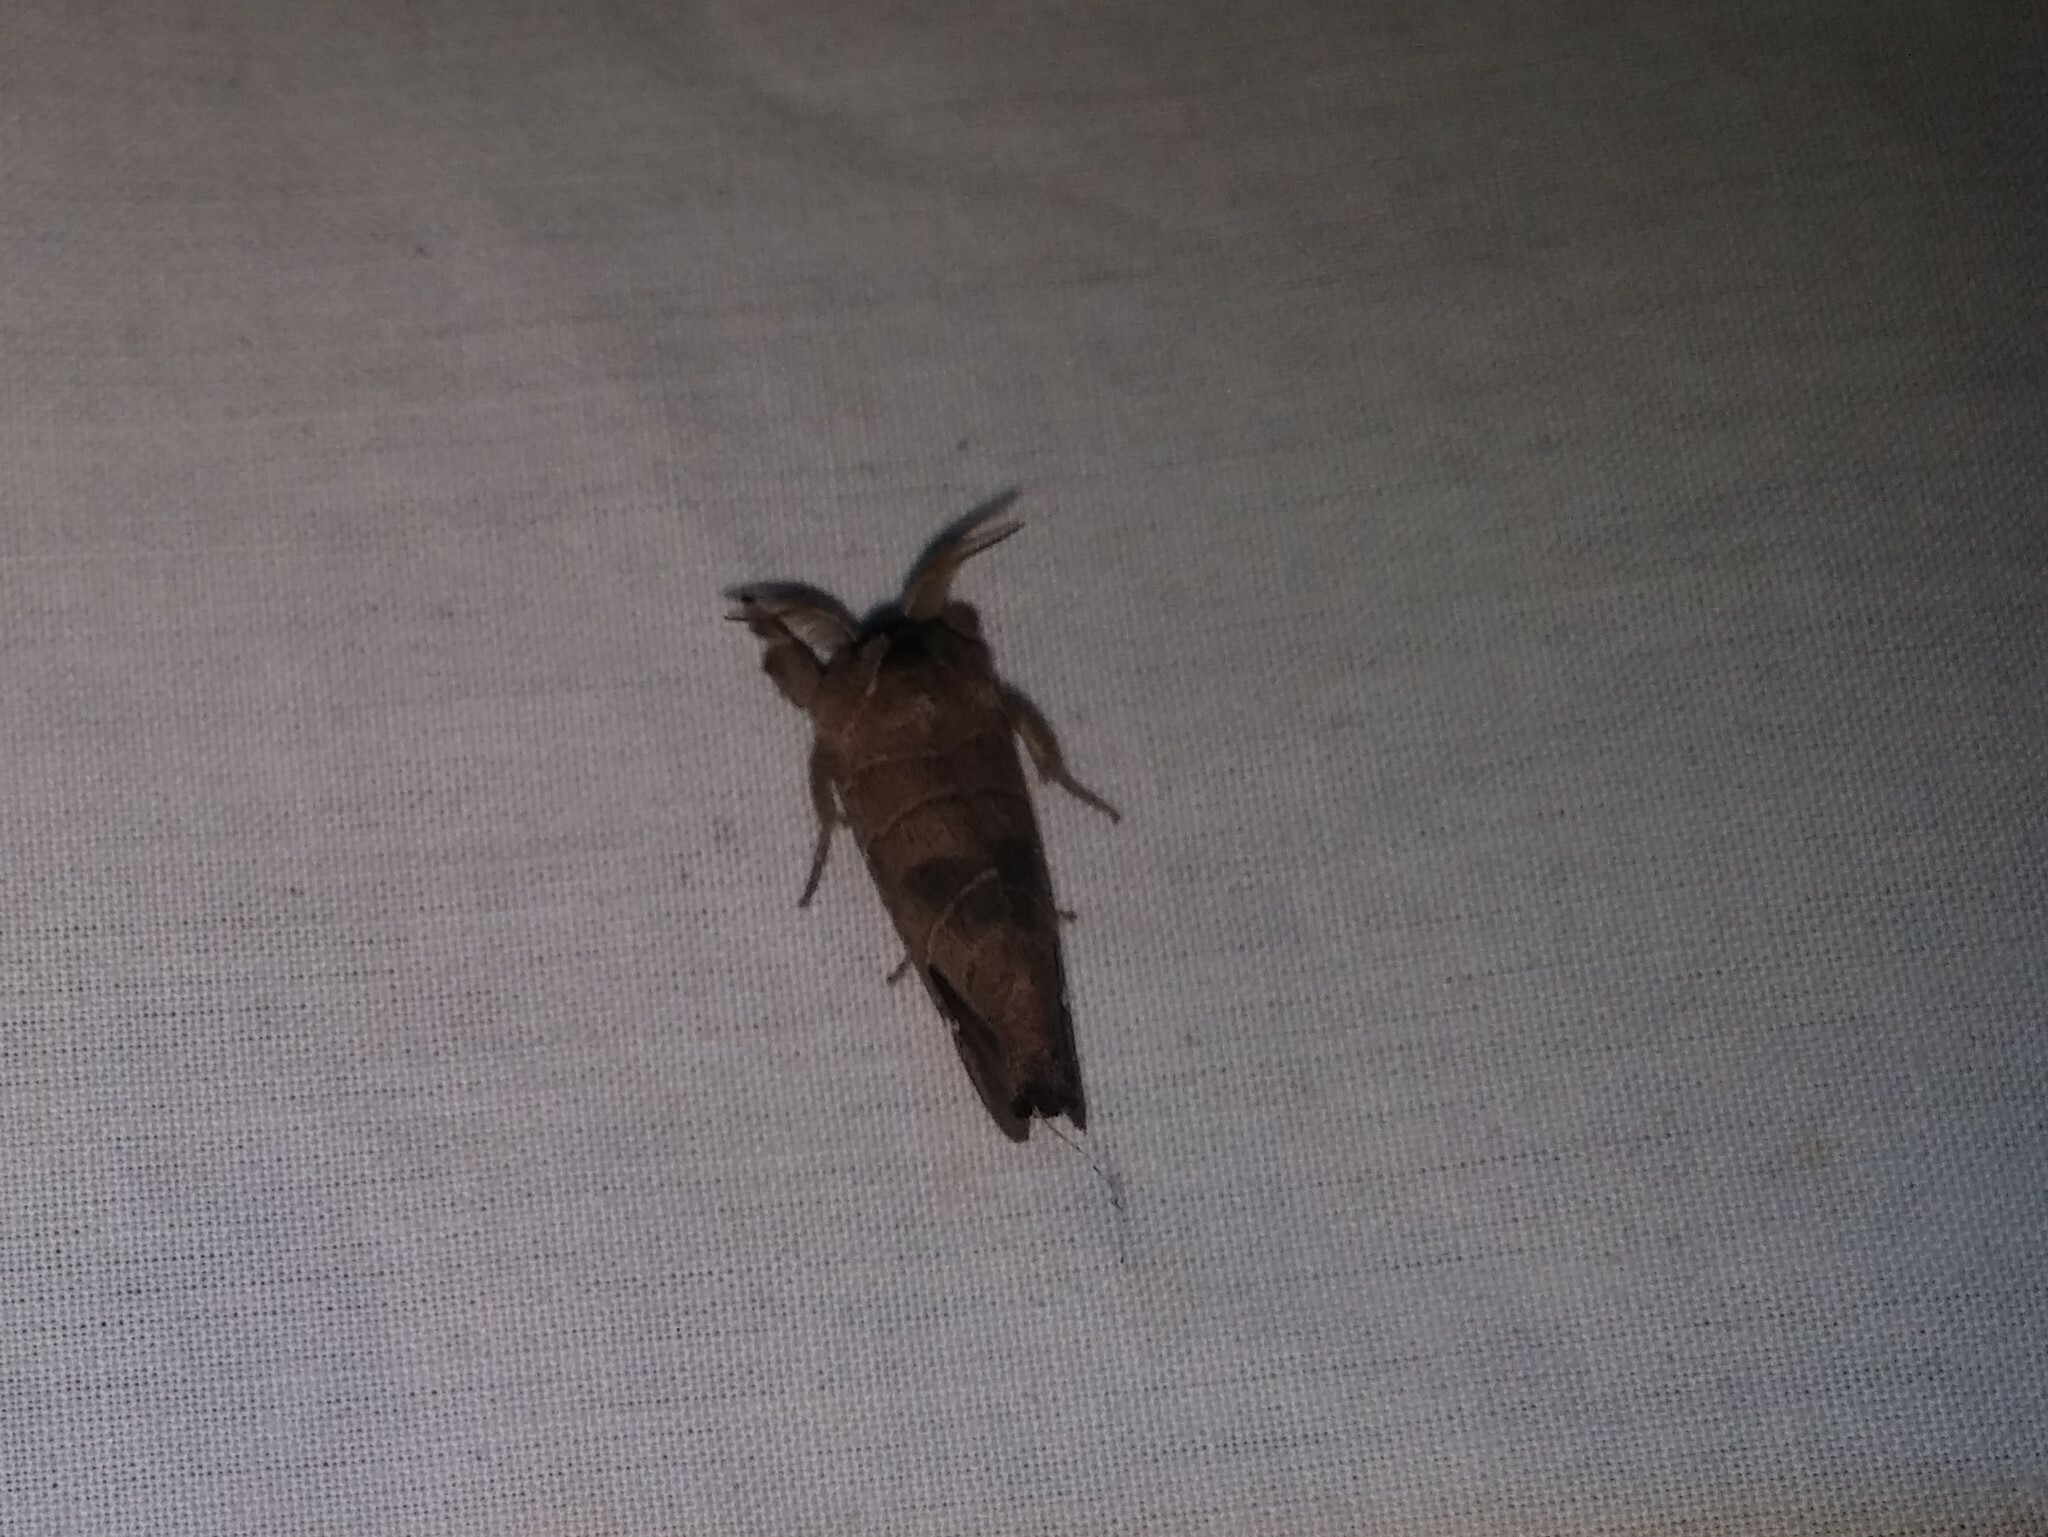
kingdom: Animalia
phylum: Arthropoda
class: Insecta
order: Lepidoptera
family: Notodontidae
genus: Clostera
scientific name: Clostera albosigma
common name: Sigmoid prominent
